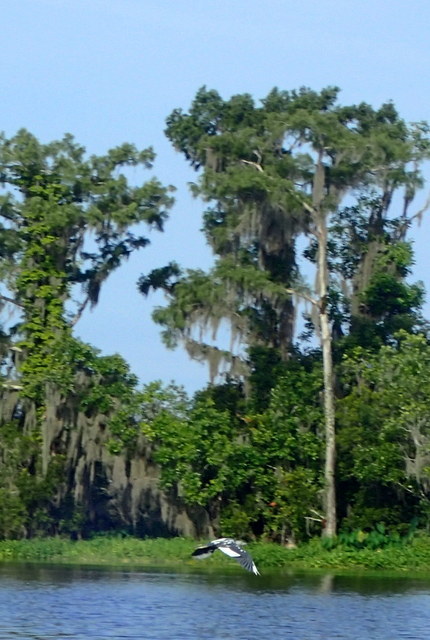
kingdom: Animalia
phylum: Chordata
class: Aves
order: Pelecaniformes
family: Ardeidae
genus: Egretta
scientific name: Egretta caerulea
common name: Little blue heron
